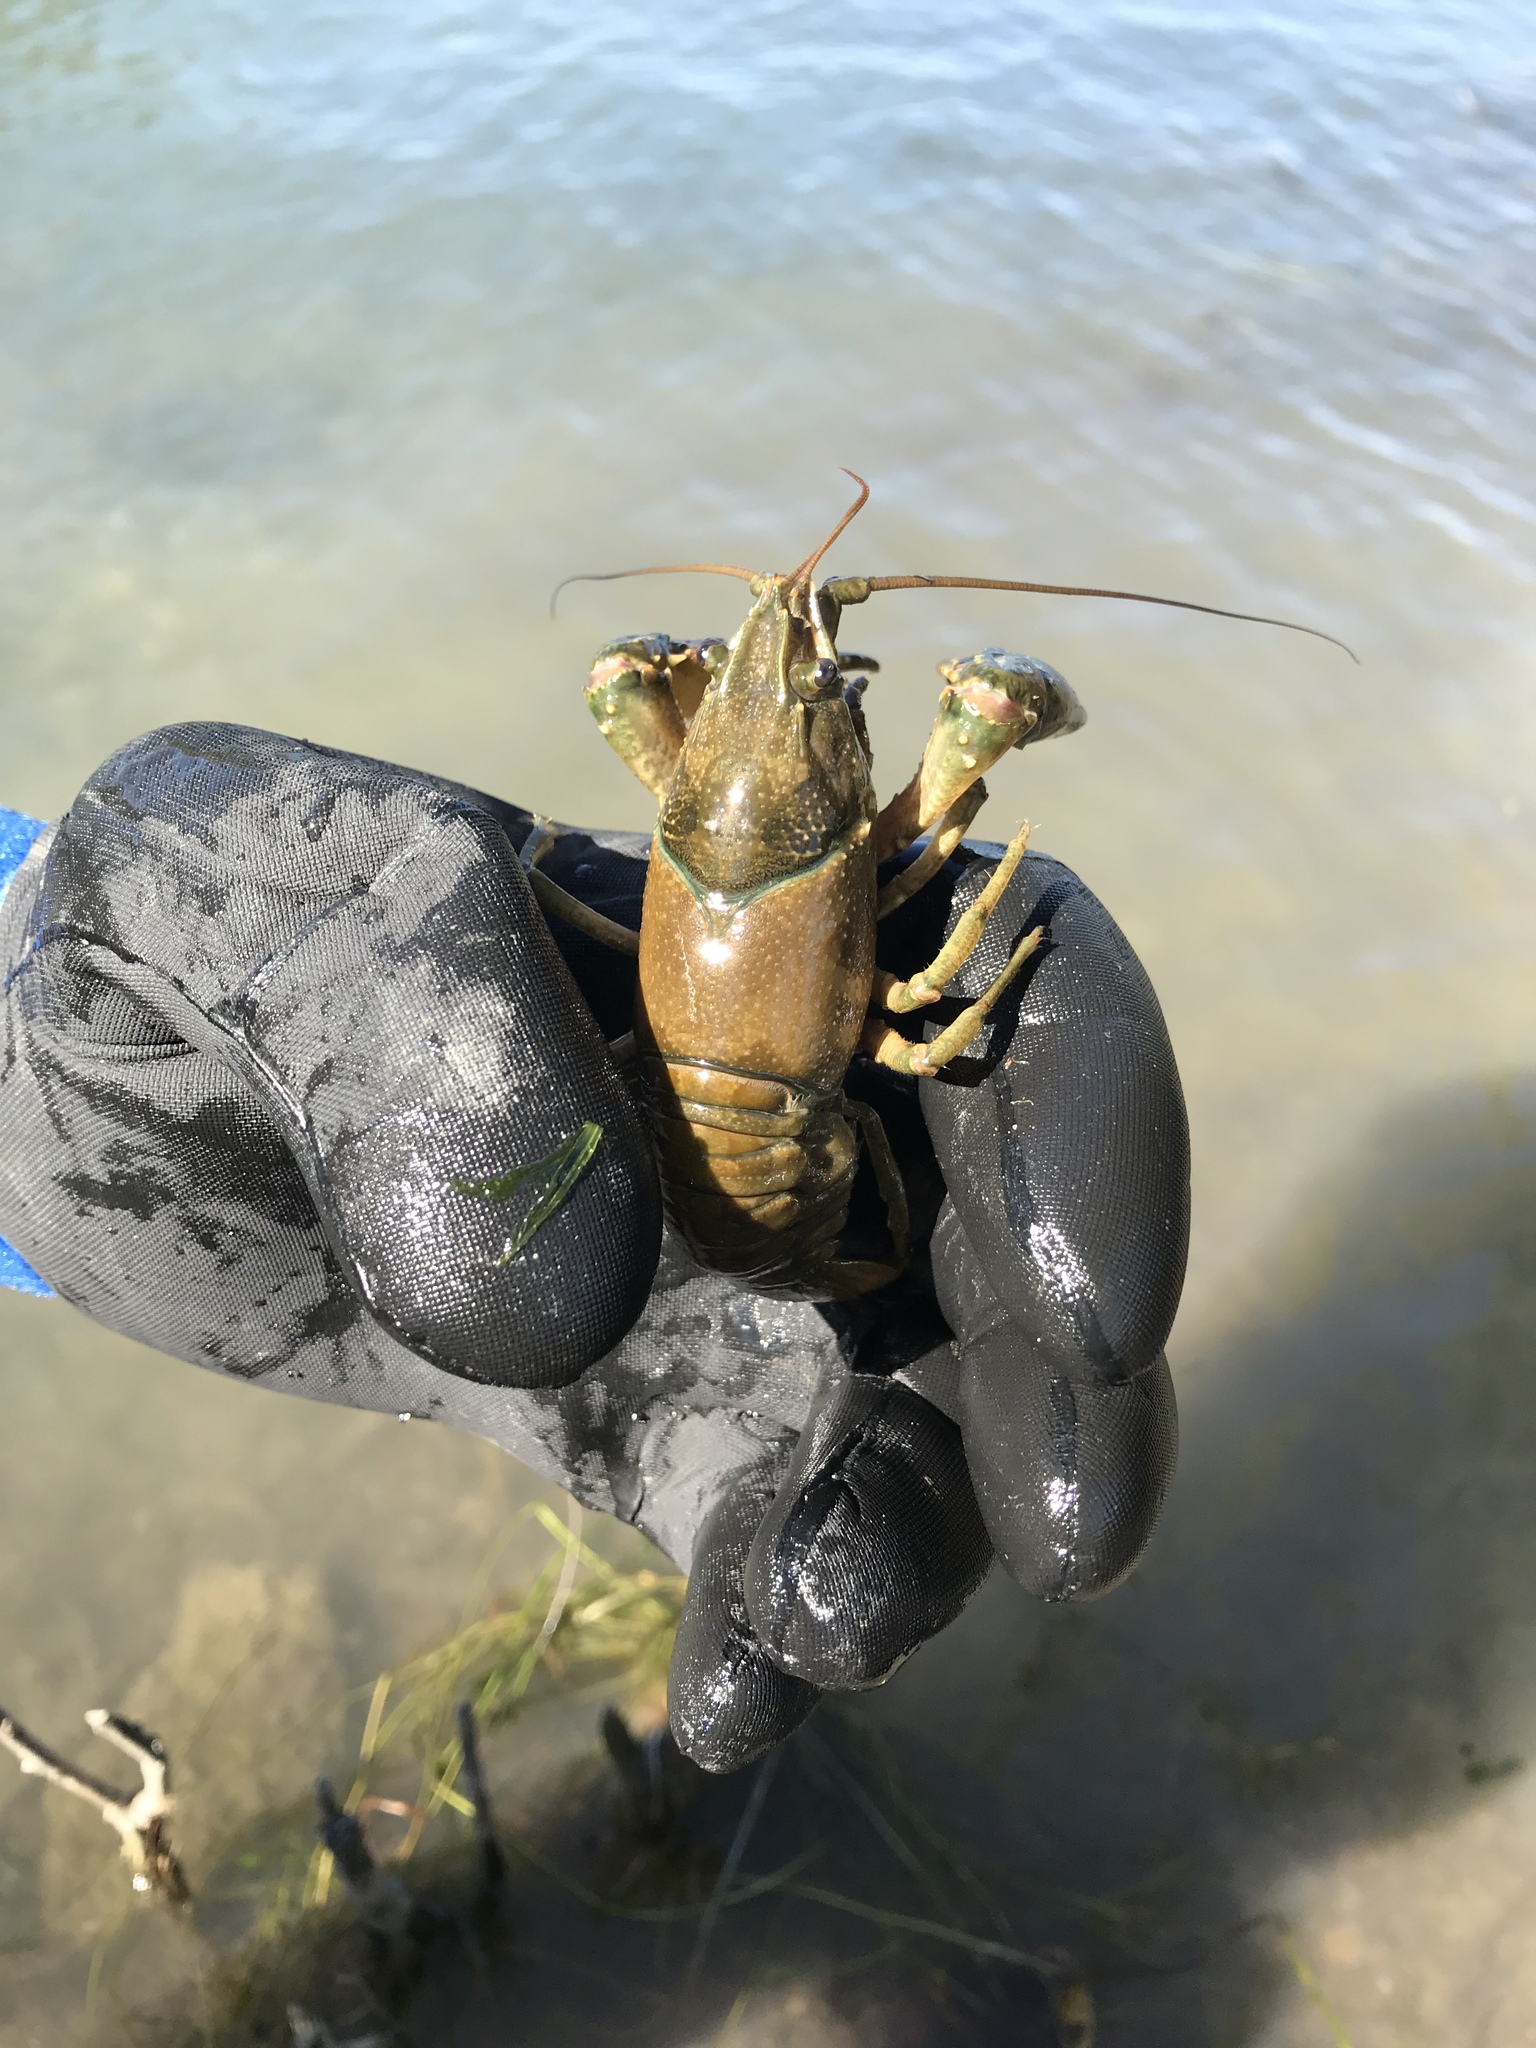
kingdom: Animalia
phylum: Arthropoda
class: Malacostraca
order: Decapoda
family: Cambaridae
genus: Faxonius
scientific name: Faxonius virilis
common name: Virile crayfish
